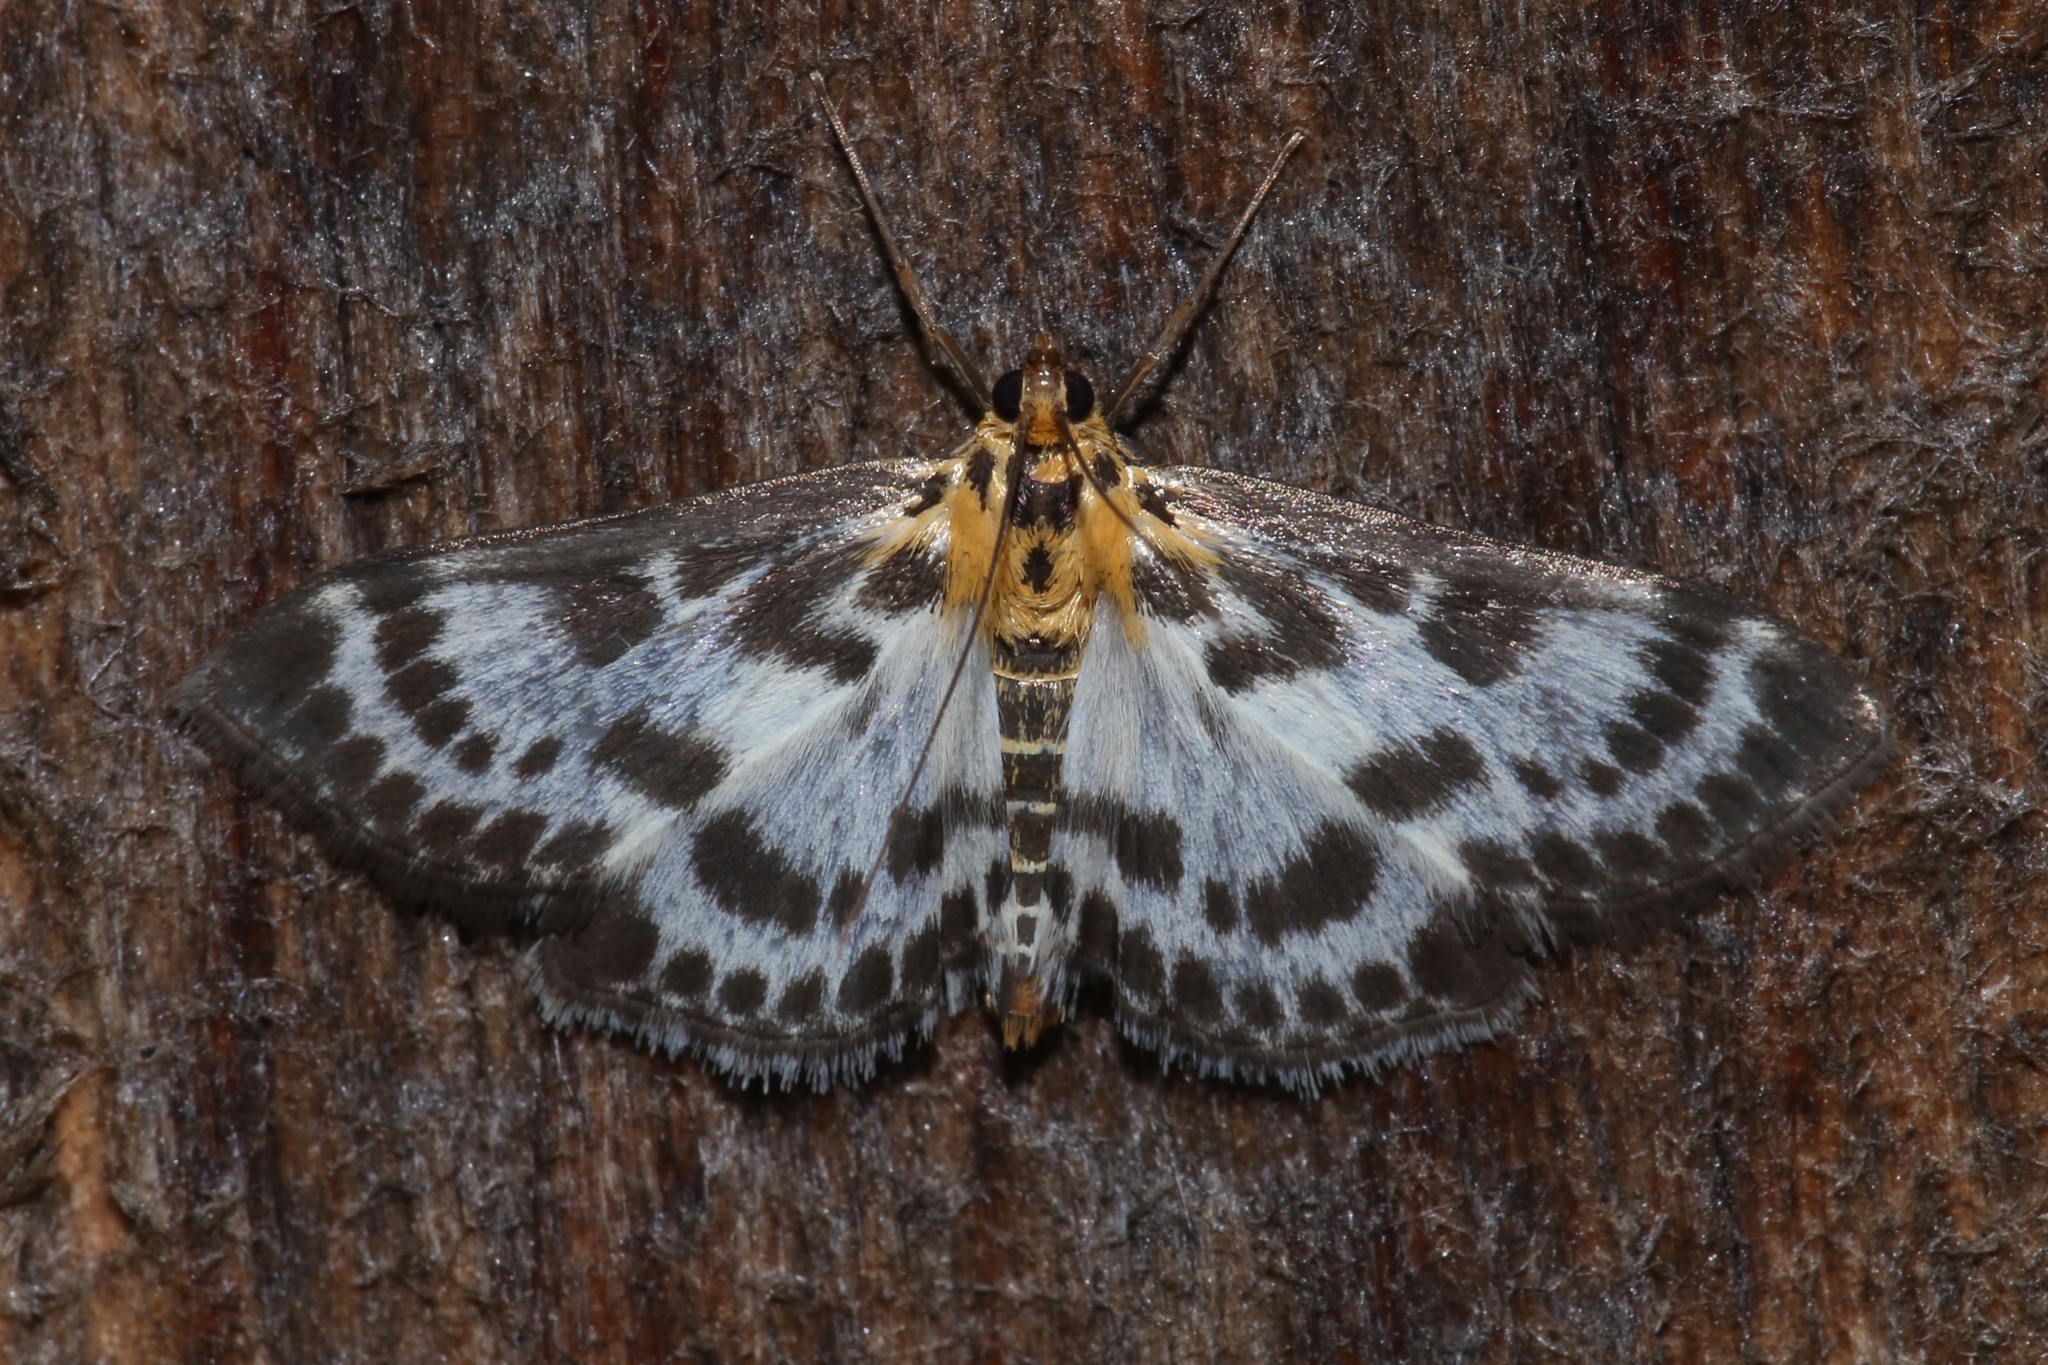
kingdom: Animalia
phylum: Arthropoda
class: Insecta
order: Lepidoptera
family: Crambidae
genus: Anania
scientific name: Anania hortulata
